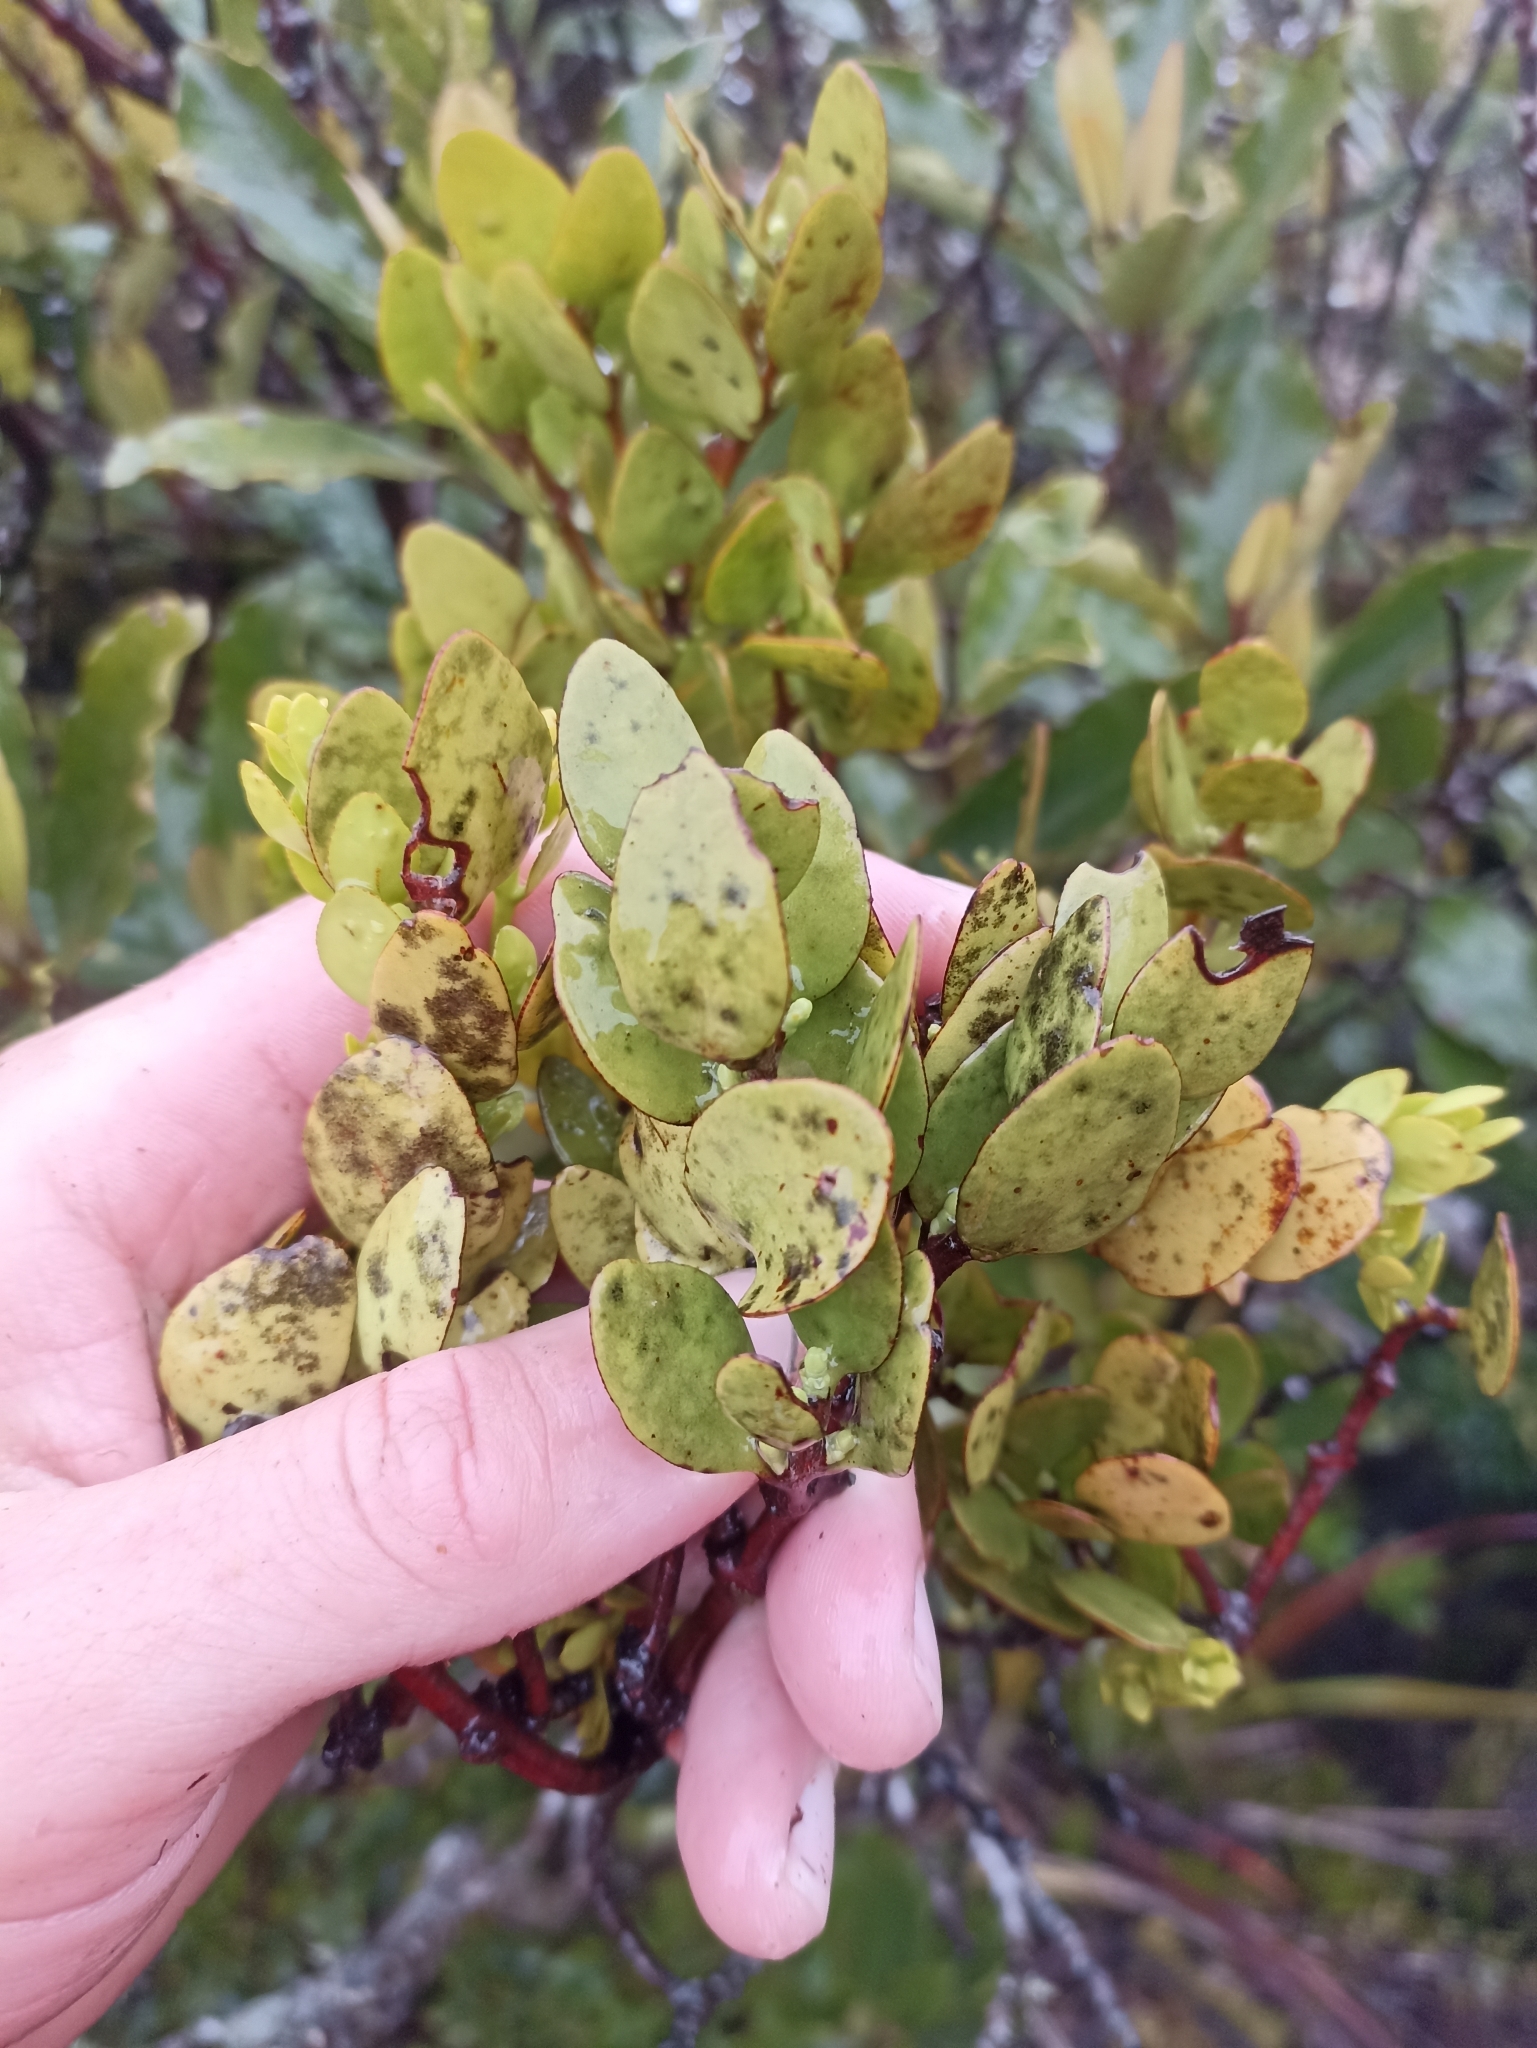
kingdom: Plantae
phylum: Tracheophyta
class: Magnoliopsida
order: Santalales
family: Loranthaceae
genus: Ileostylus
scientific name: Ileostylus micranthus
